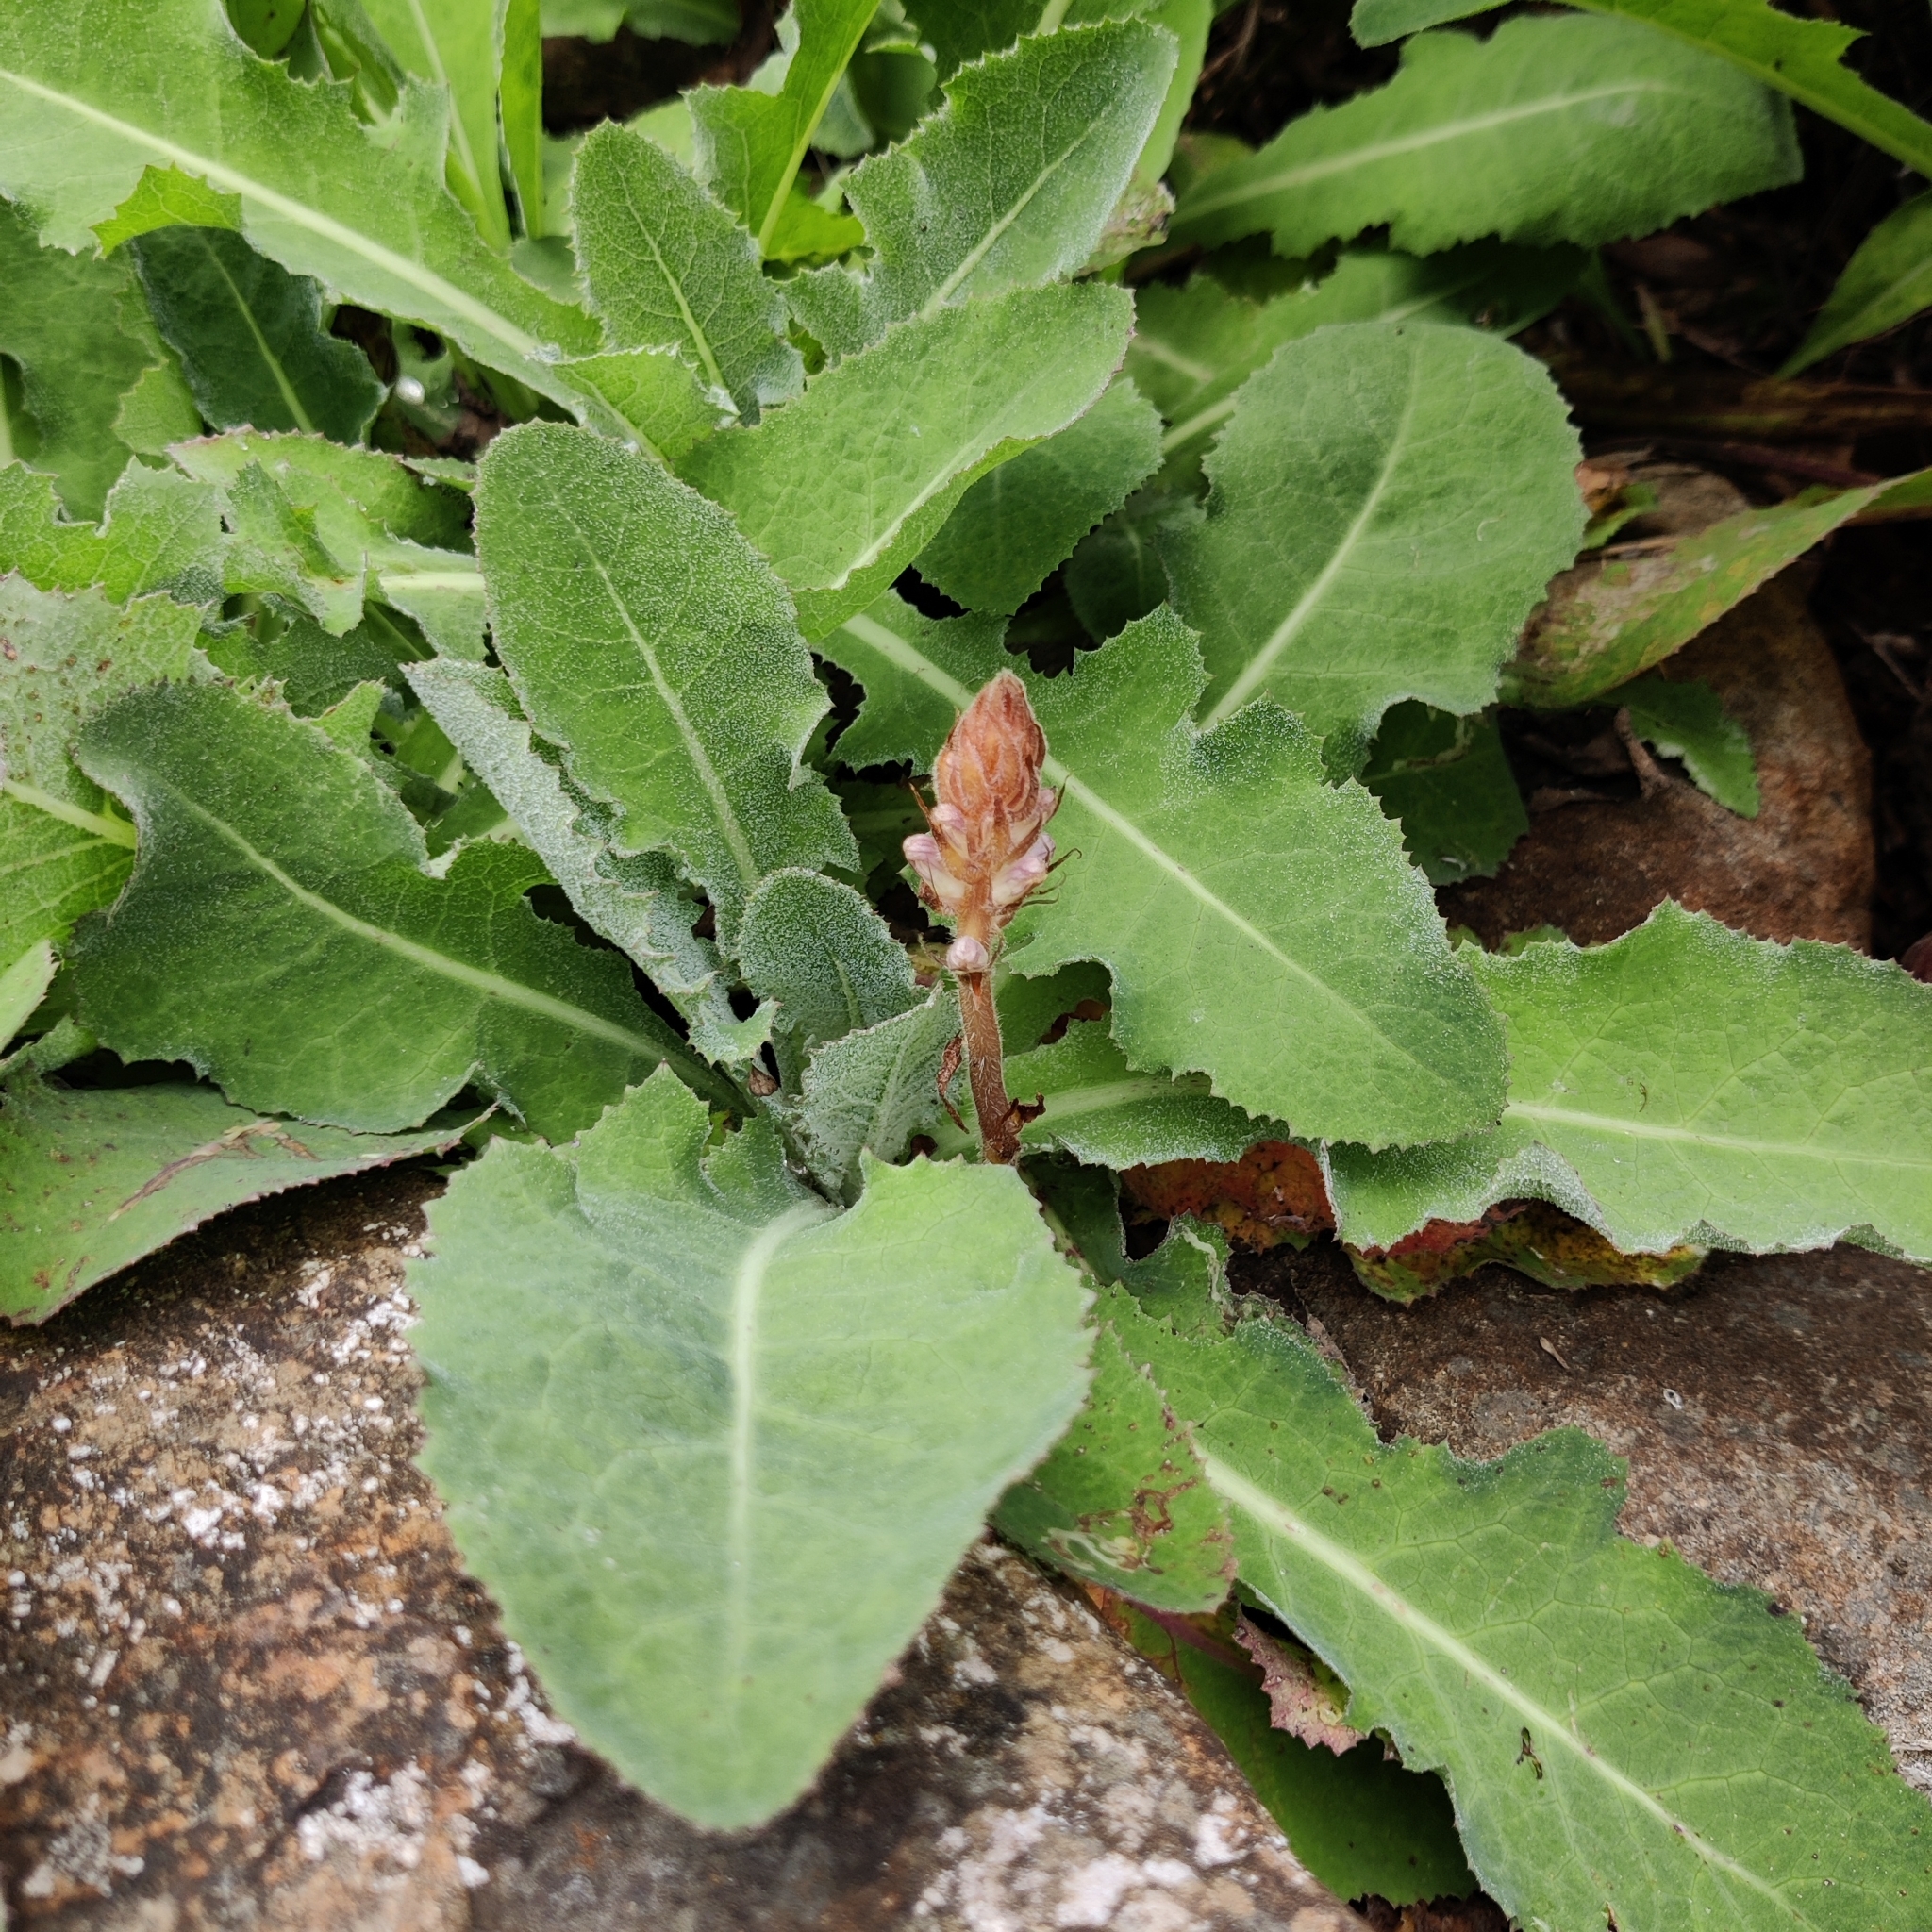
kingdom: Plantae
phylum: Tracheophyta
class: Magnoliopsida
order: Lamiales
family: Orobanchaceae
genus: Orobanche
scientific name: Orobanche minor
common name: Common broomrape
